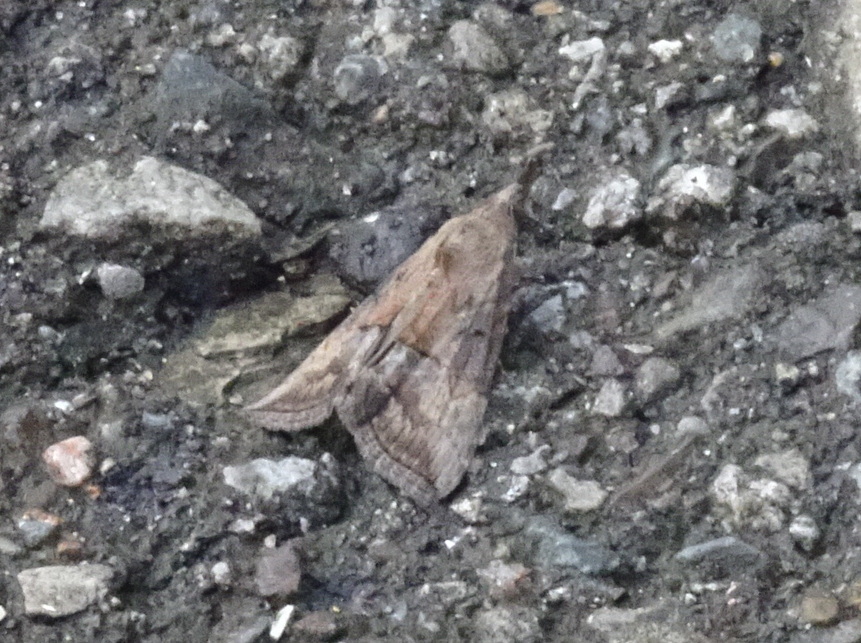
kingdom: Animalia
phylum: Arthropoda
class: Insecta
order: Lepidoptera
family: Erebidae
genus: Hypena
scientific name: Hypena scabra
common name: Green cloverworm
